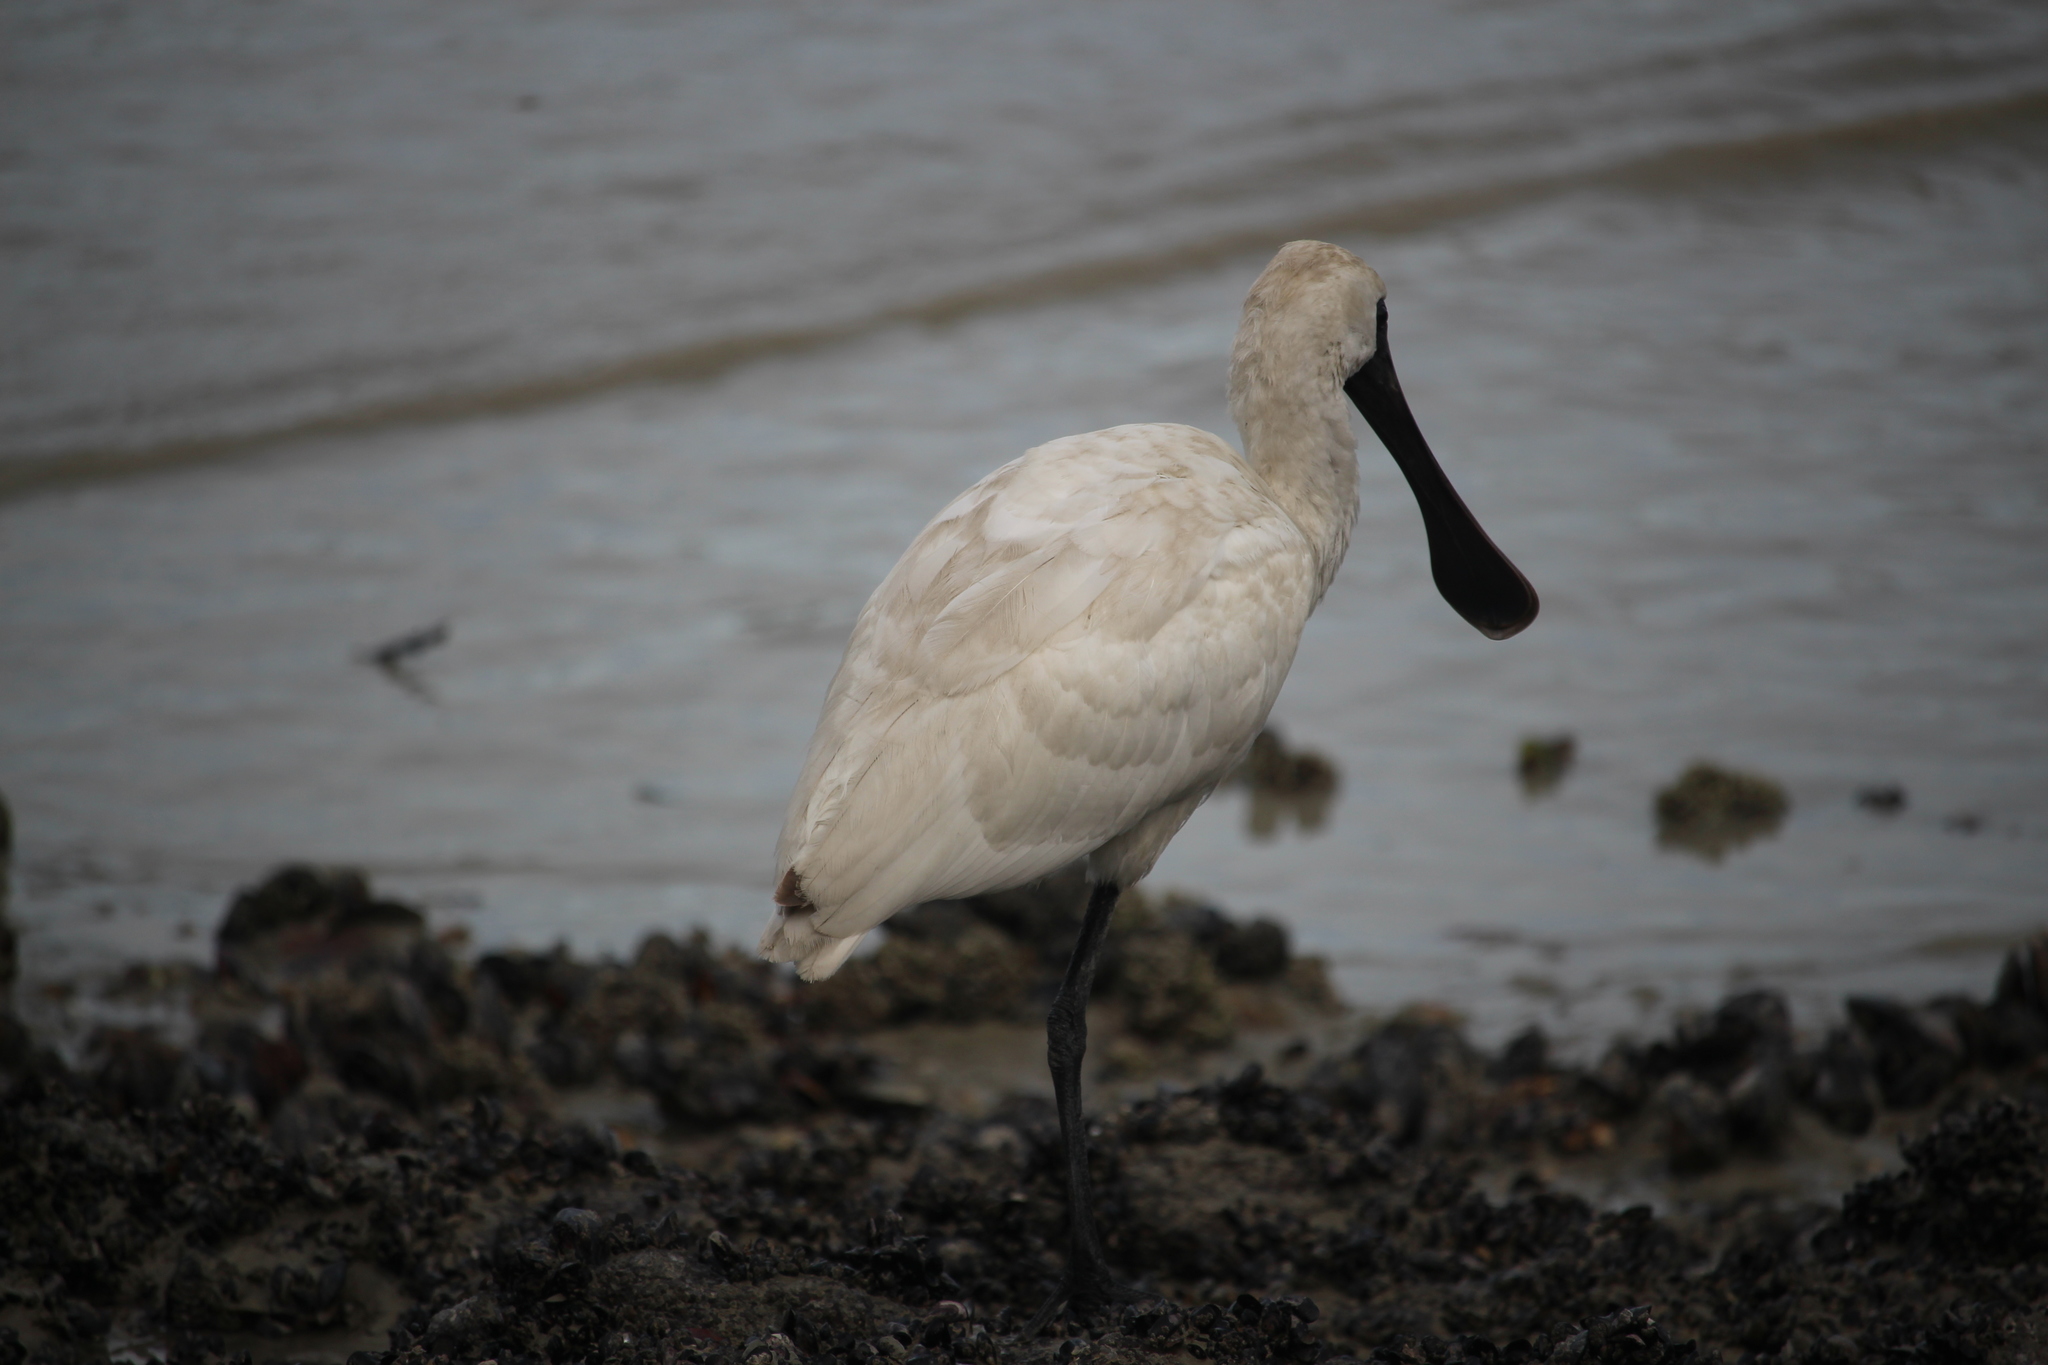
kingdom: Animalia
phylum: Chordata
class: Aves
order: Pelecaniformes
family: Threskiornithidae
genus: Platalea
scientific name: Platalea regia
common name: Royal spoonbill
